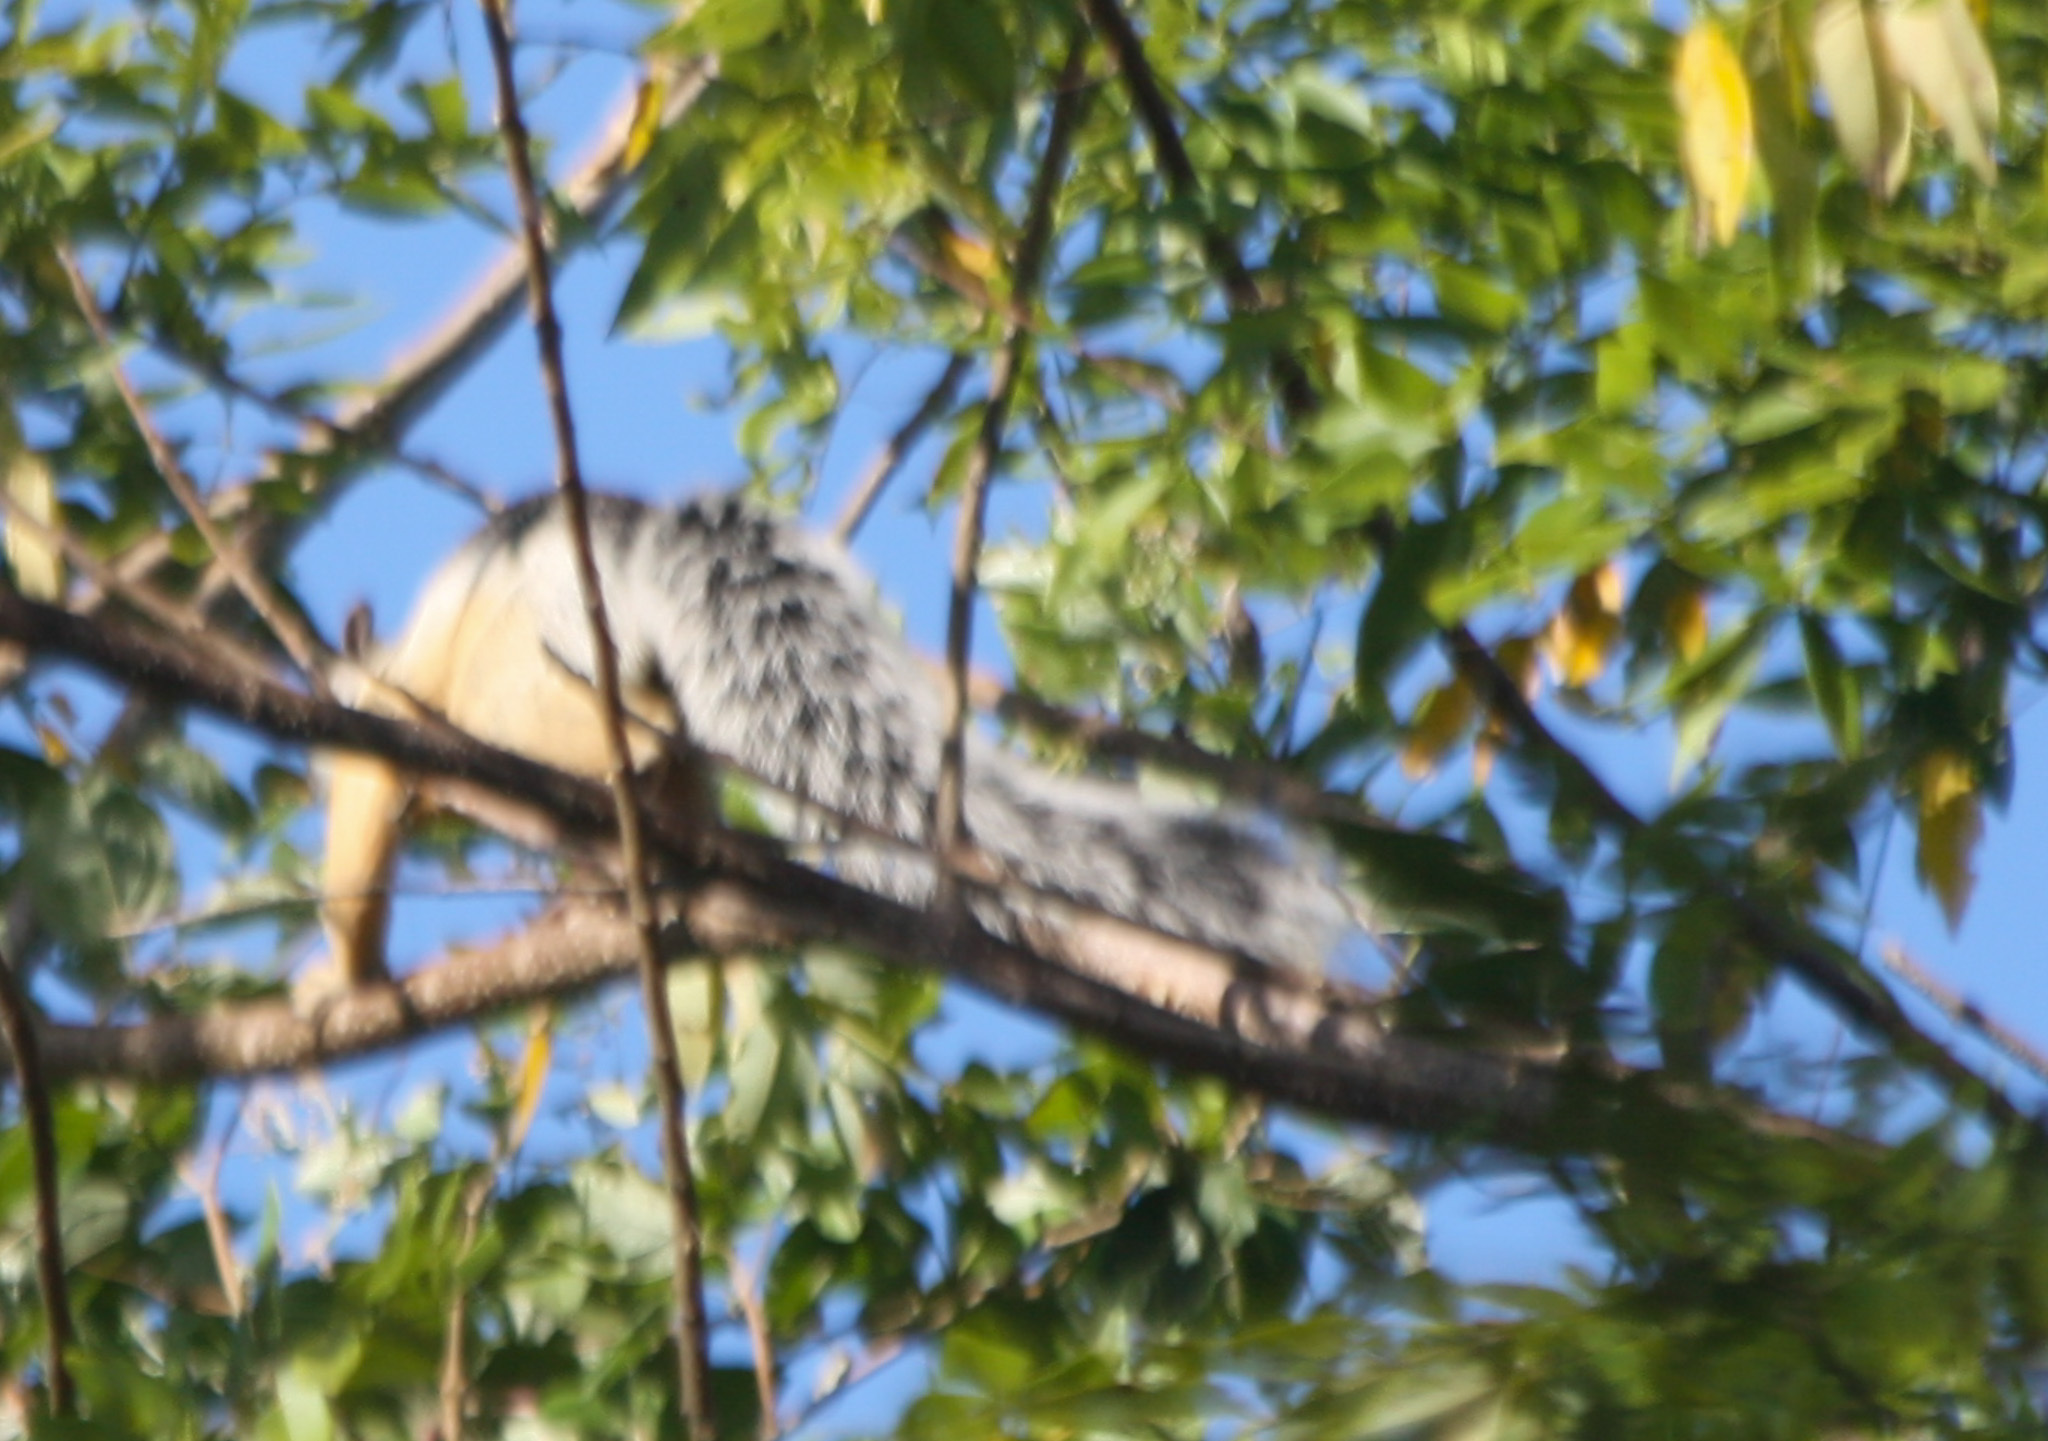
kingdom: Animalia
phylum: Chordata
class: Mammalia
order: Rodentia
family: Sciuridae
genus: Sciurus
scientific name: Sciurus variegatoides
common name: Variegated squirrel
